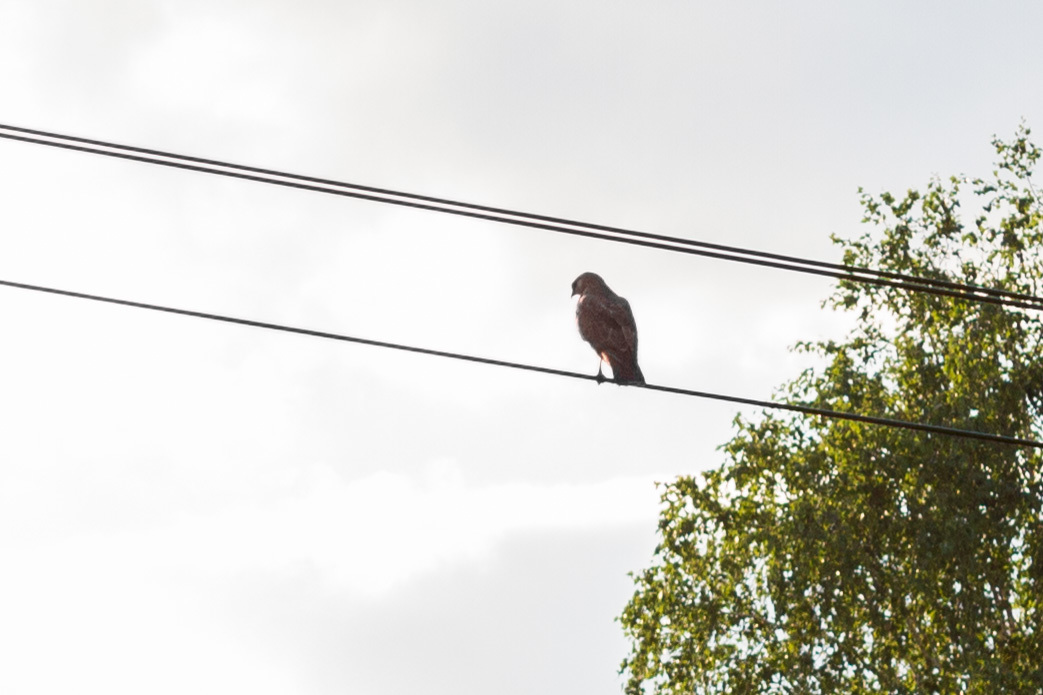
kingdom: Animalia
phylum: Chordata
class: Aves
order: Accipitriformes
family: Accipitridae
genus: Buteo
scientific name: Buteo buteo
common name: Common buzzard
